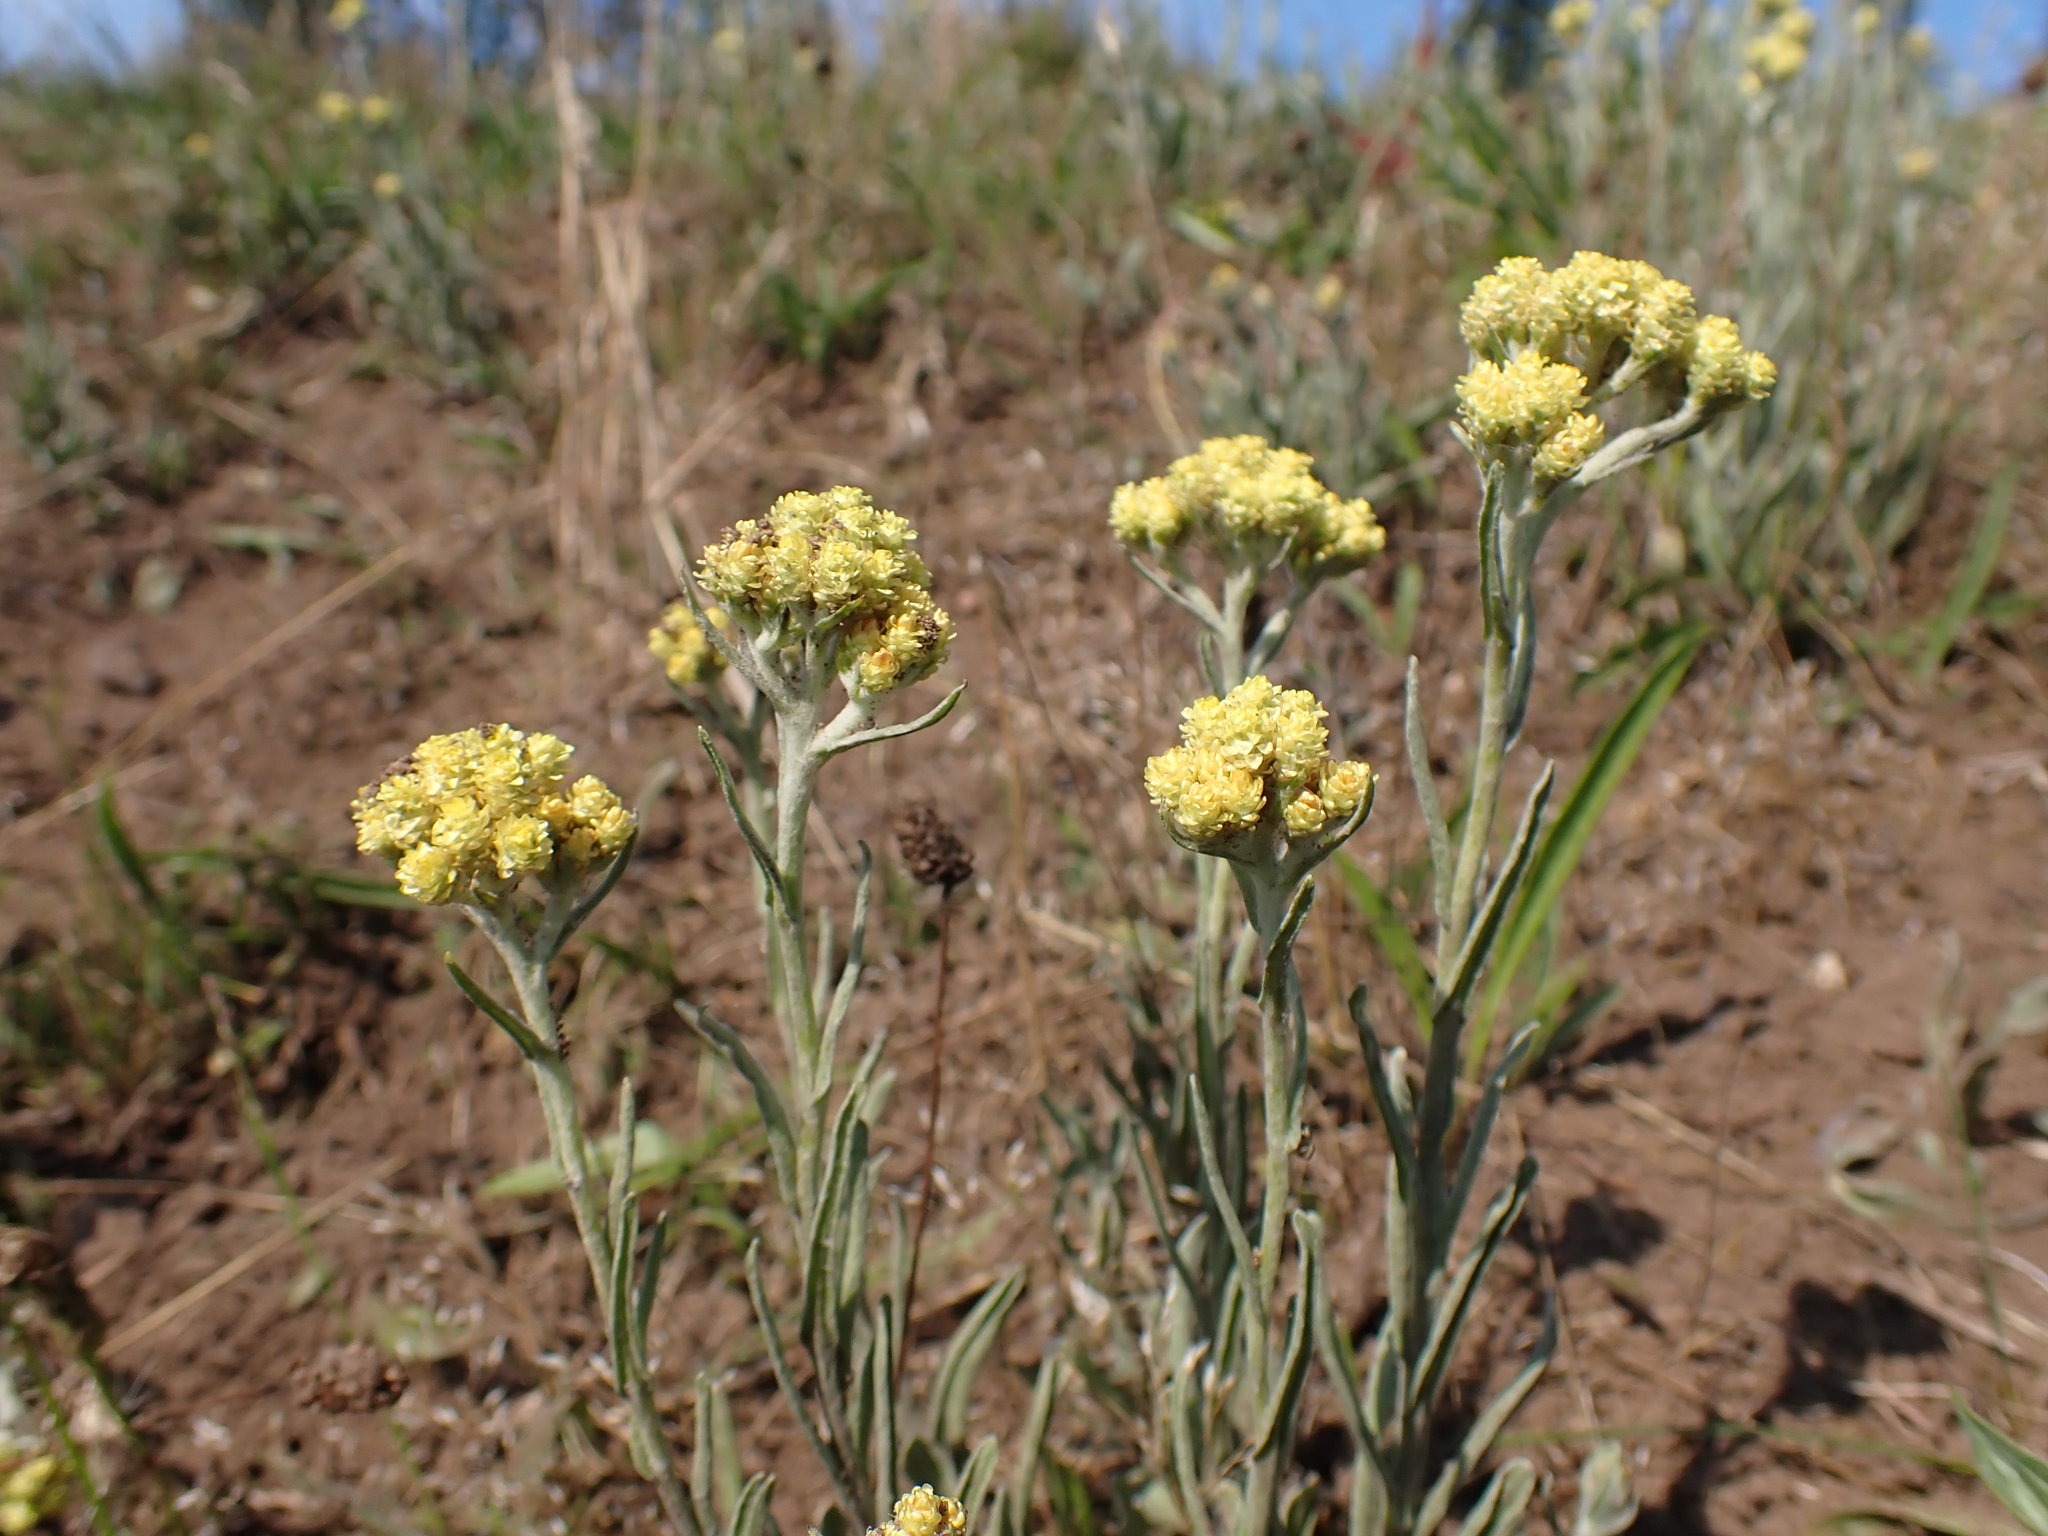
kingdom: Plantae
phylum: Tracheophyta
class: Magnoliopsida
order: Asterales
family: Asteraceae
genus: Helichrysum
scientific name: Helichrysum arenarium
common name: Strawflower
